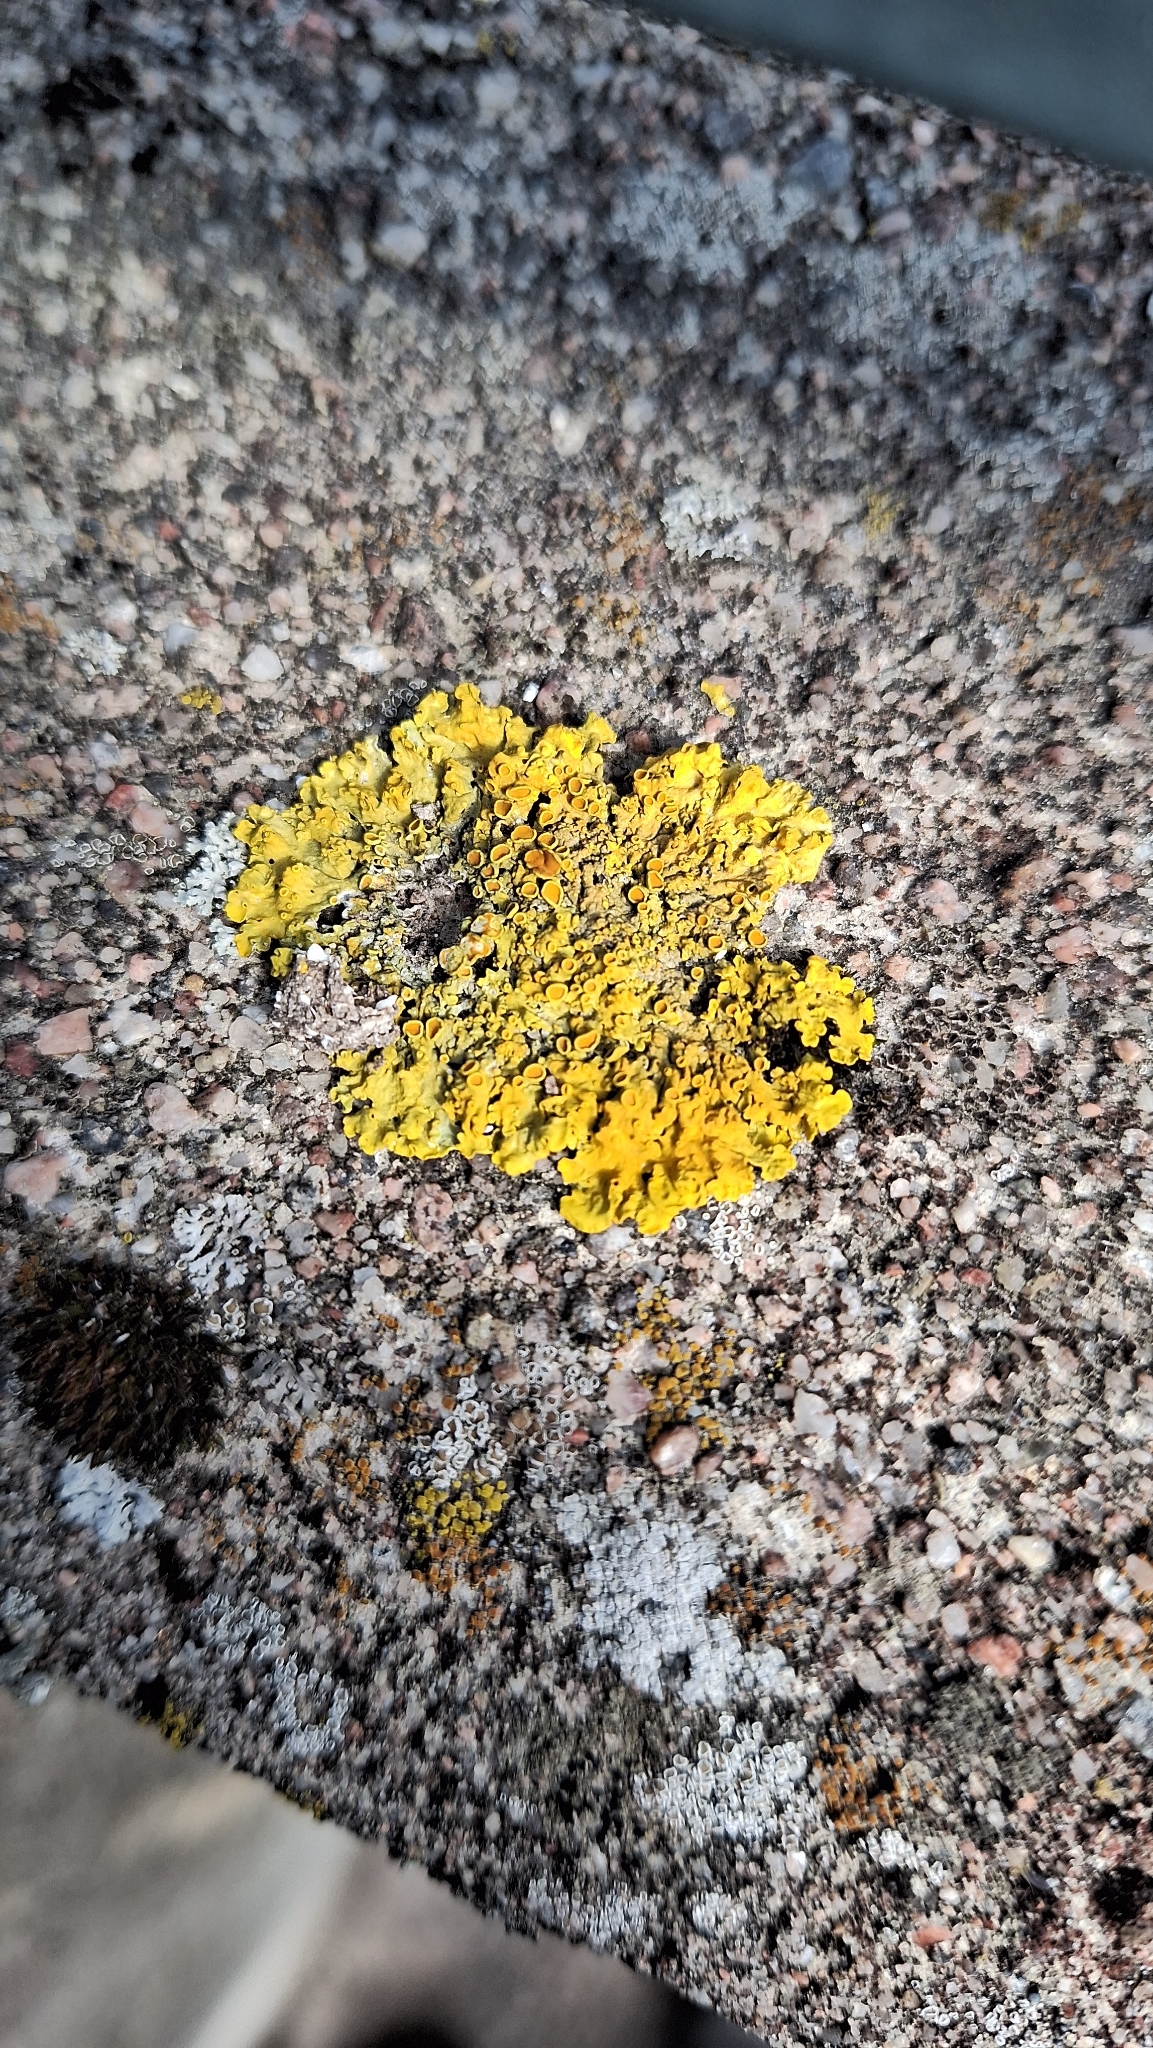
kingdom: Fungi
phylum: Ascomycota
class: Lecanoromycetes
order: Teloschistales
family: Teloschistaceae
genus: Xanthoria
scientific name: Xanthoria parietina
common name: Common orange lichen
